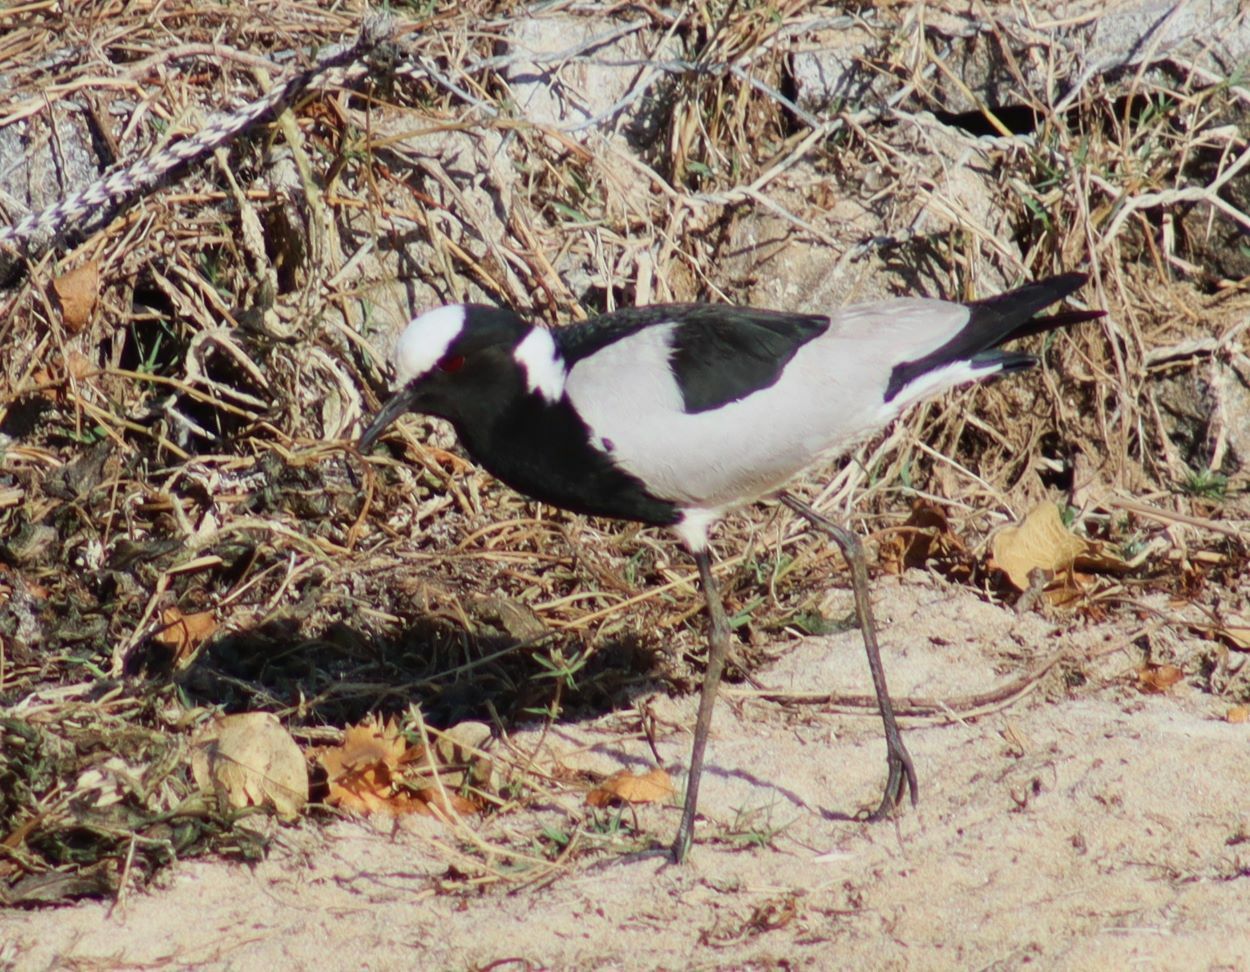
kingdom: Animalia
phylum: Chordata
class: Aves
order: Charadriiformes
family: Charadriidae
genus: Vanellus
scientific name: Vanellus armatus
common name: Blacksmith lapwing
